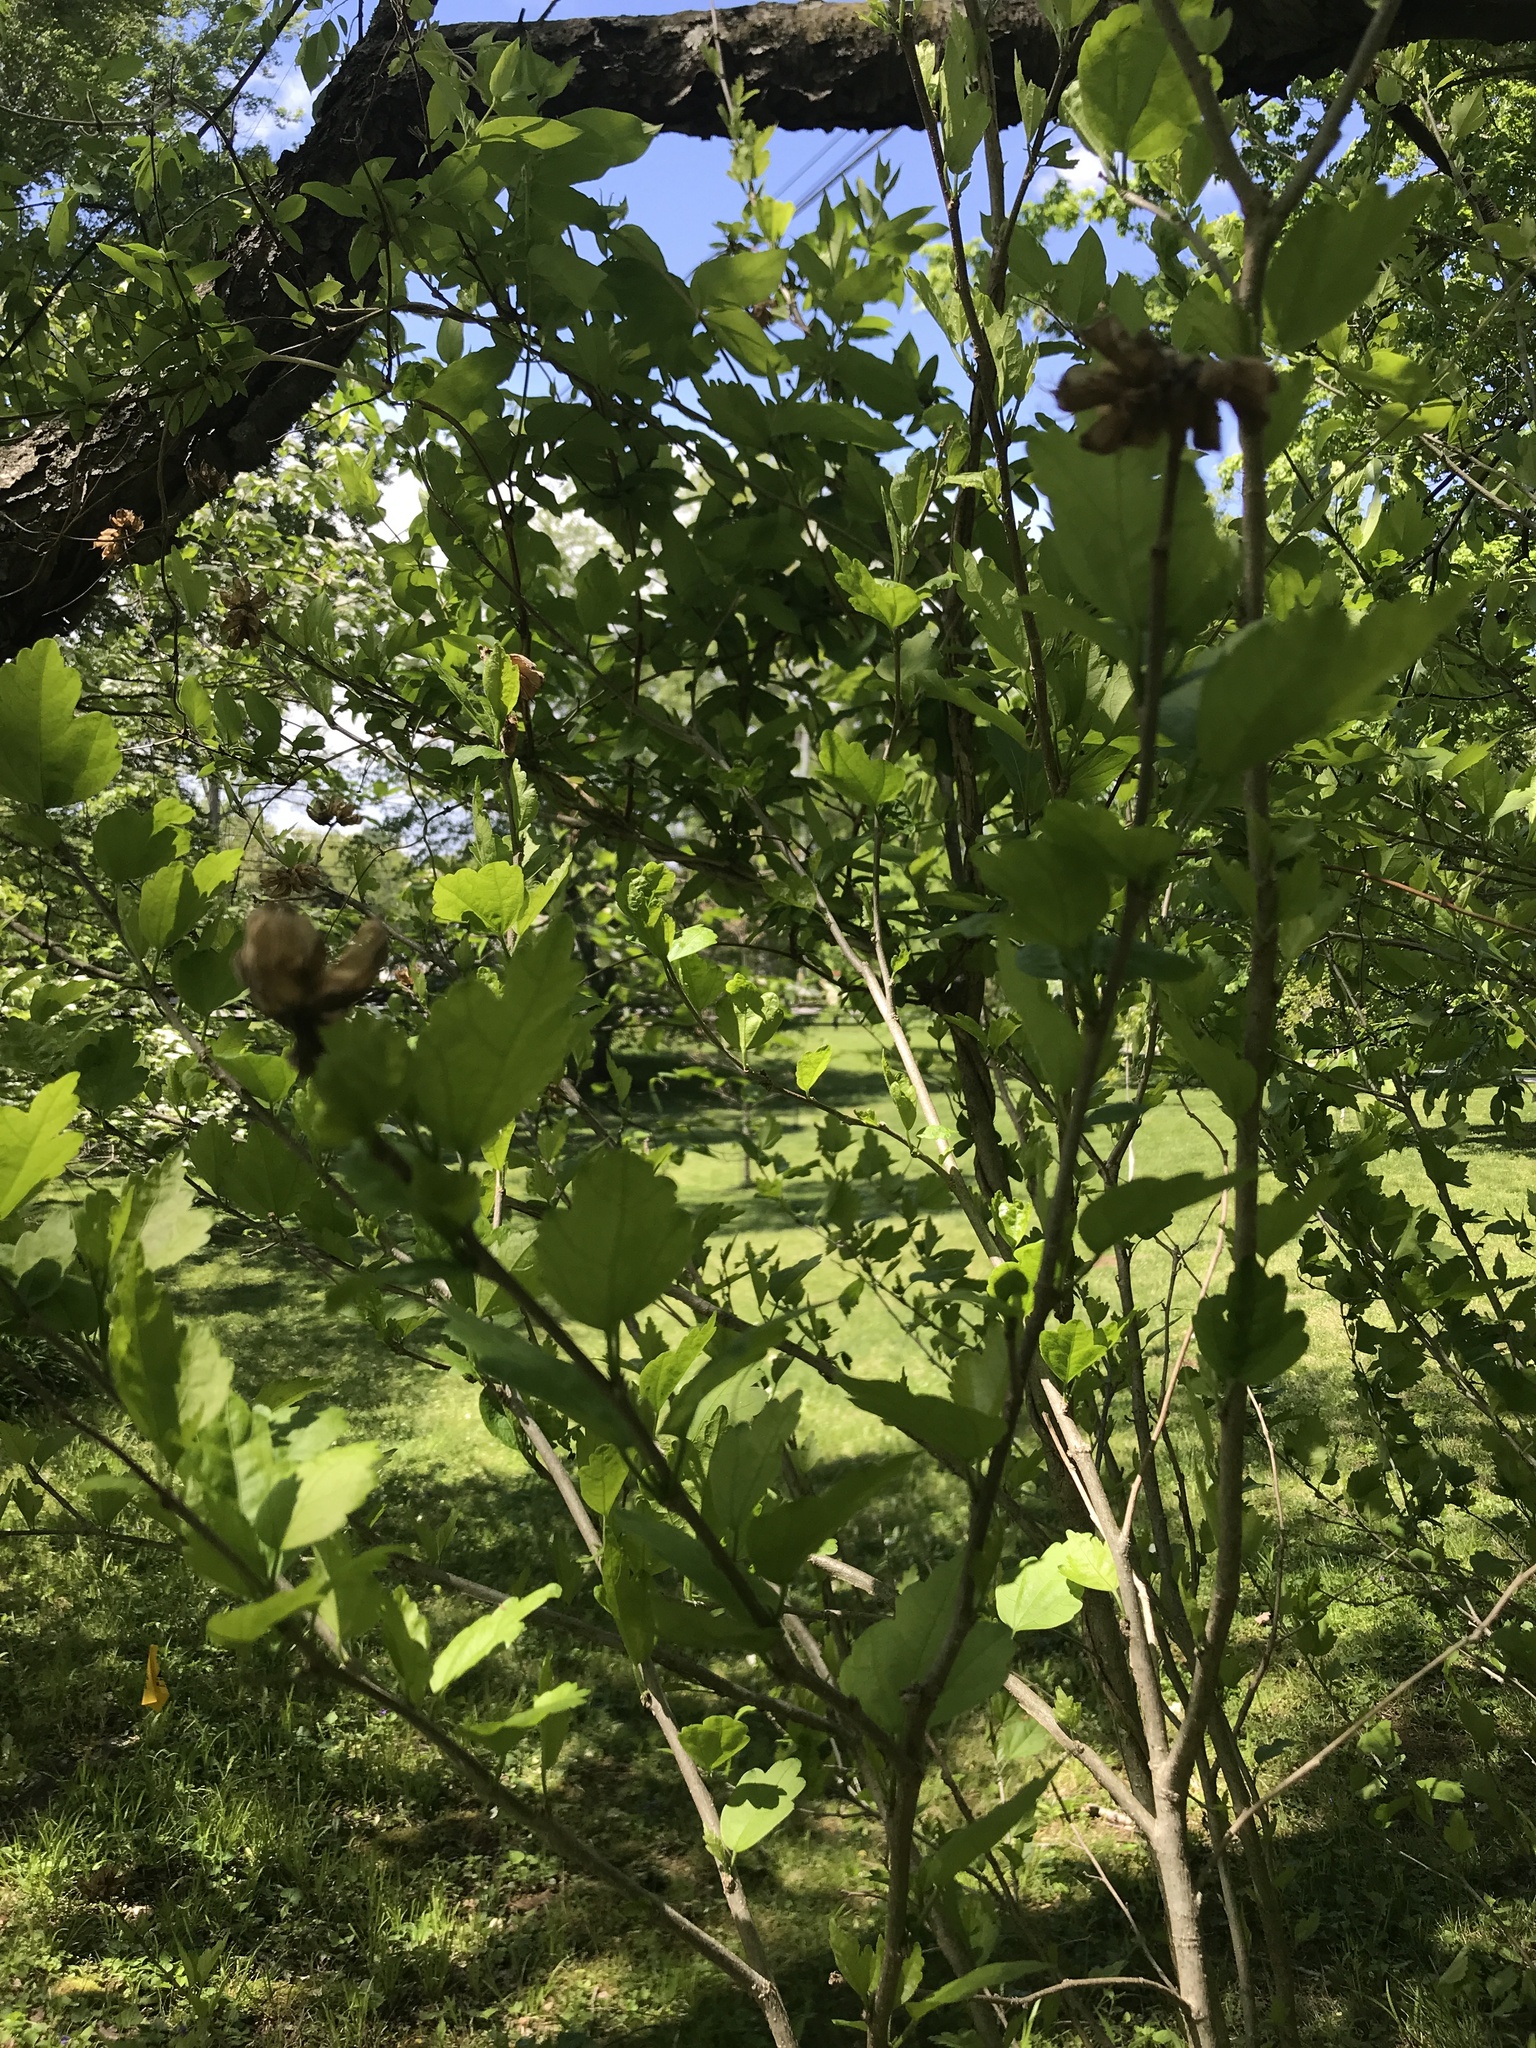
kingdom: Plantae
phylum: Tracheophyta
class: Magnoliopsida
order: Malvales
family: Malvaceae
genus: Hibiscus
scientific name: Hibiscus syriacus
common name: Syrian ketmia
